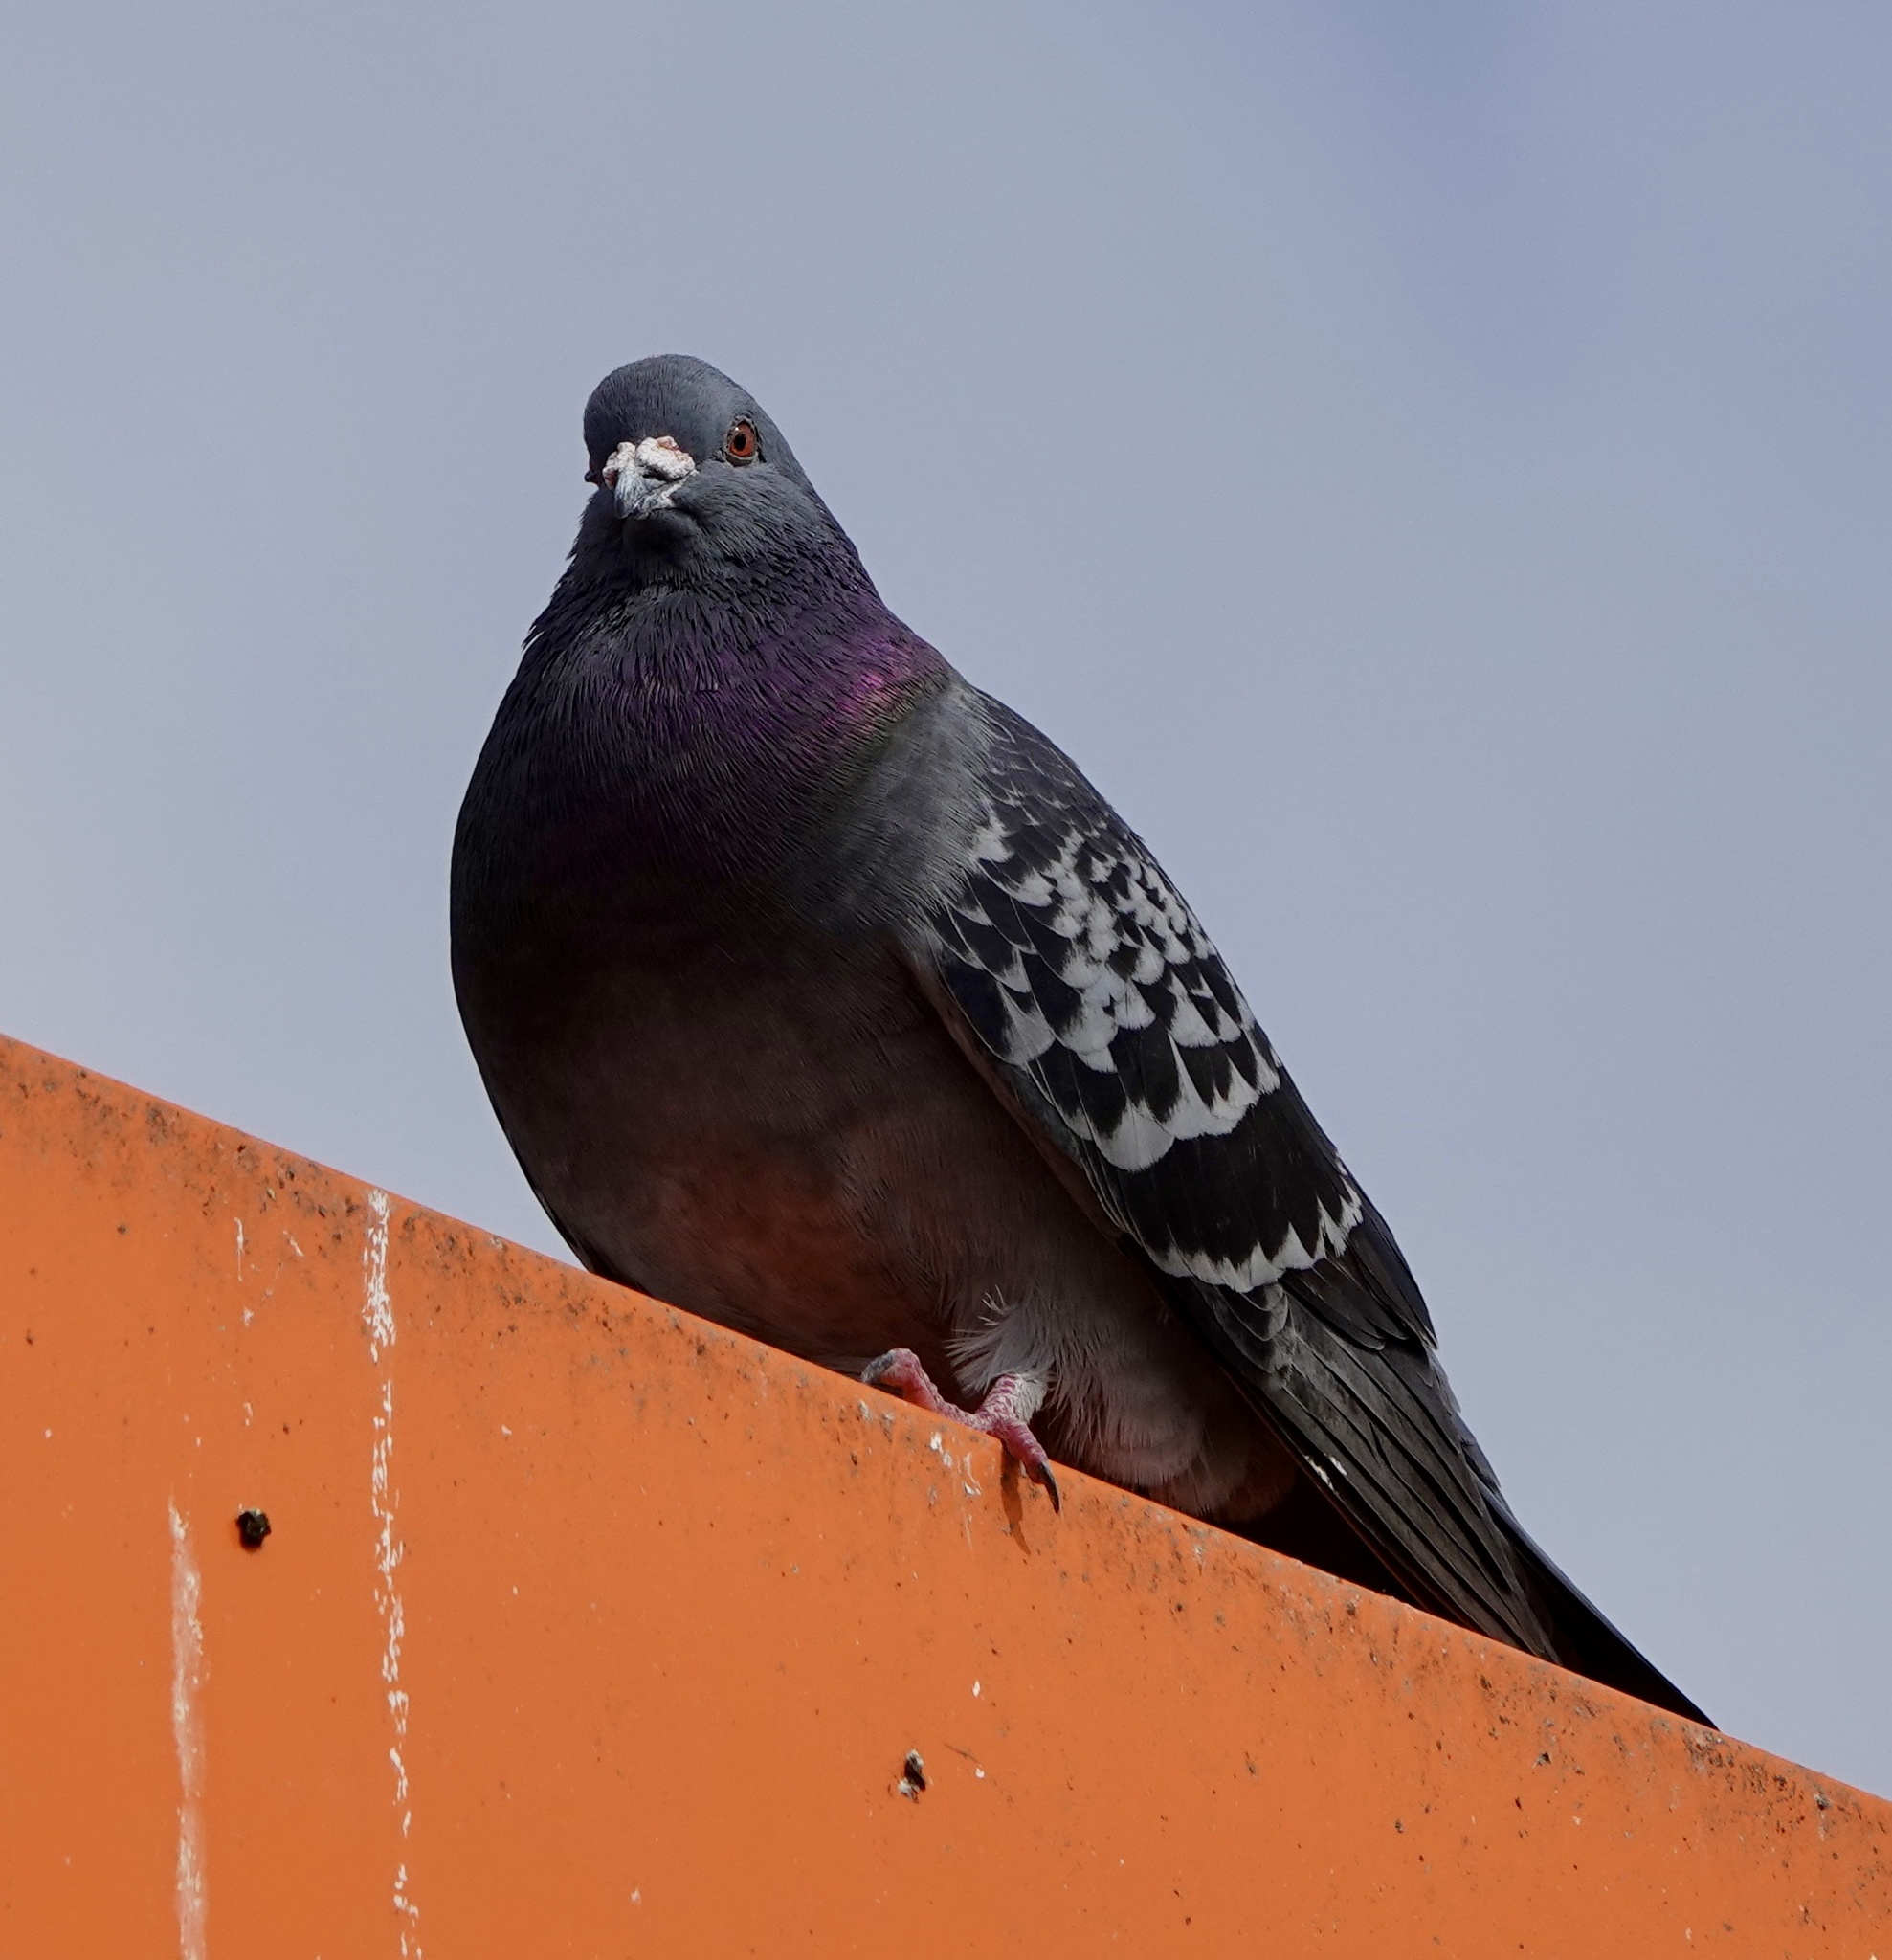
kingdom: Animalia
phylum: Chordata
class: Aves
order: Columbiformes
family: Columbidae
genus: Columba
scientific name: Columba livia
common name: Rock pigeon
